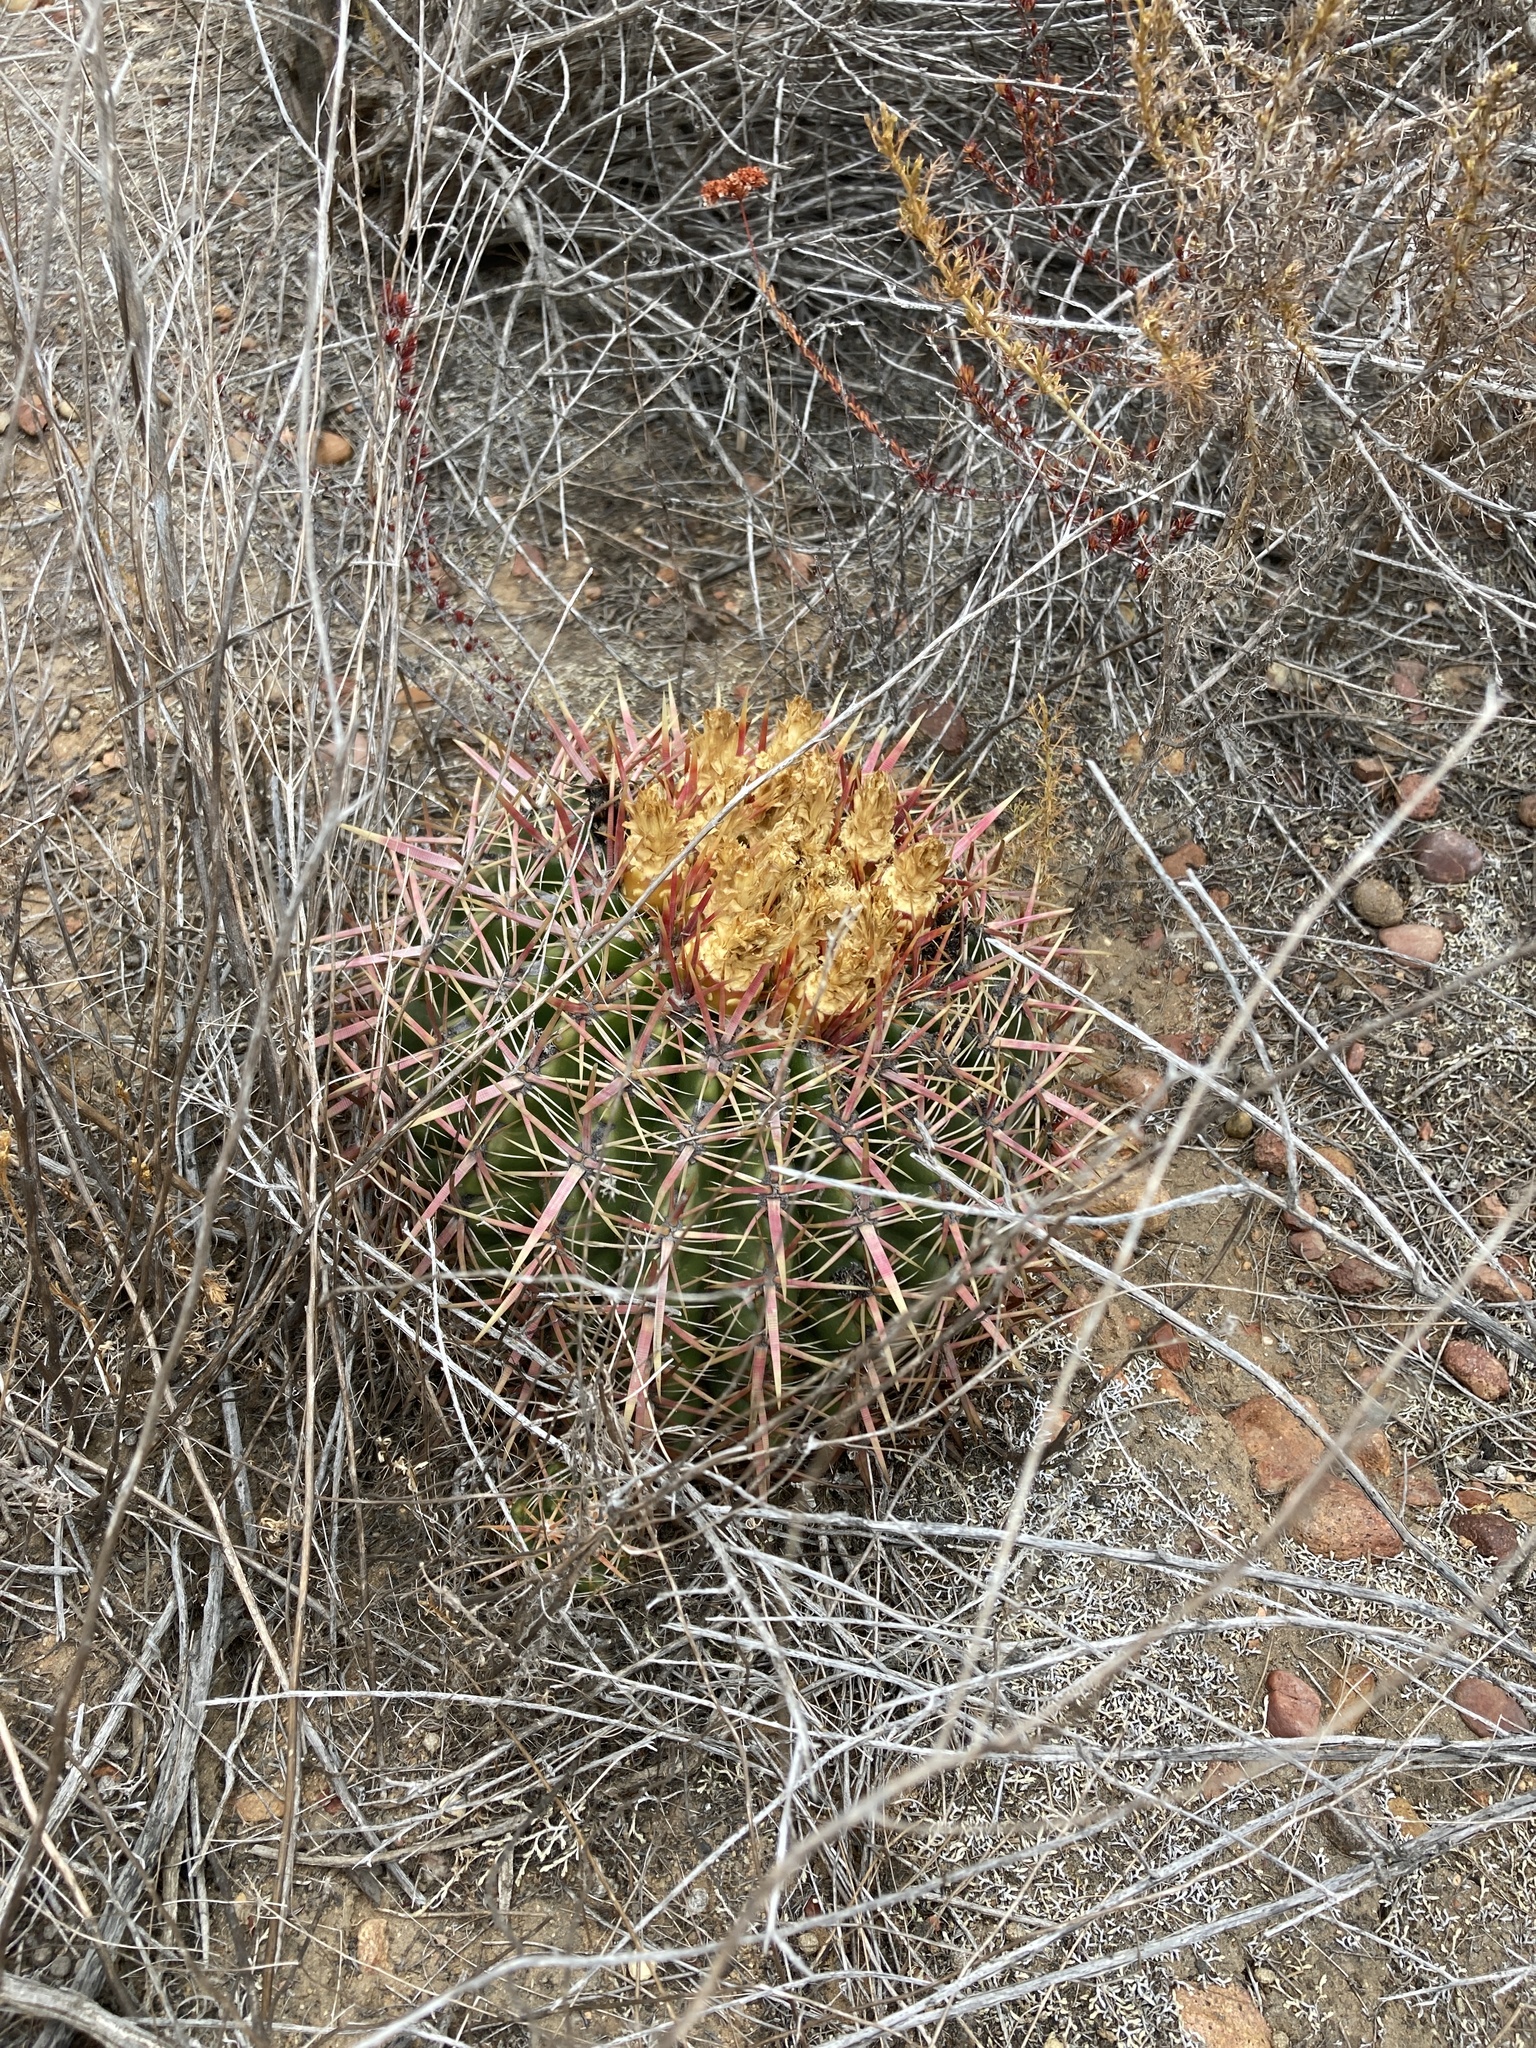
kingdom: Plantae
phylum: Tracheophyta
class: Magnoliopsida
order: Caryophyllales
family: Cactaceae
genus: Ferocactus
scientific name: Ferocactus viridescens
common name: San diego barrel cactus
